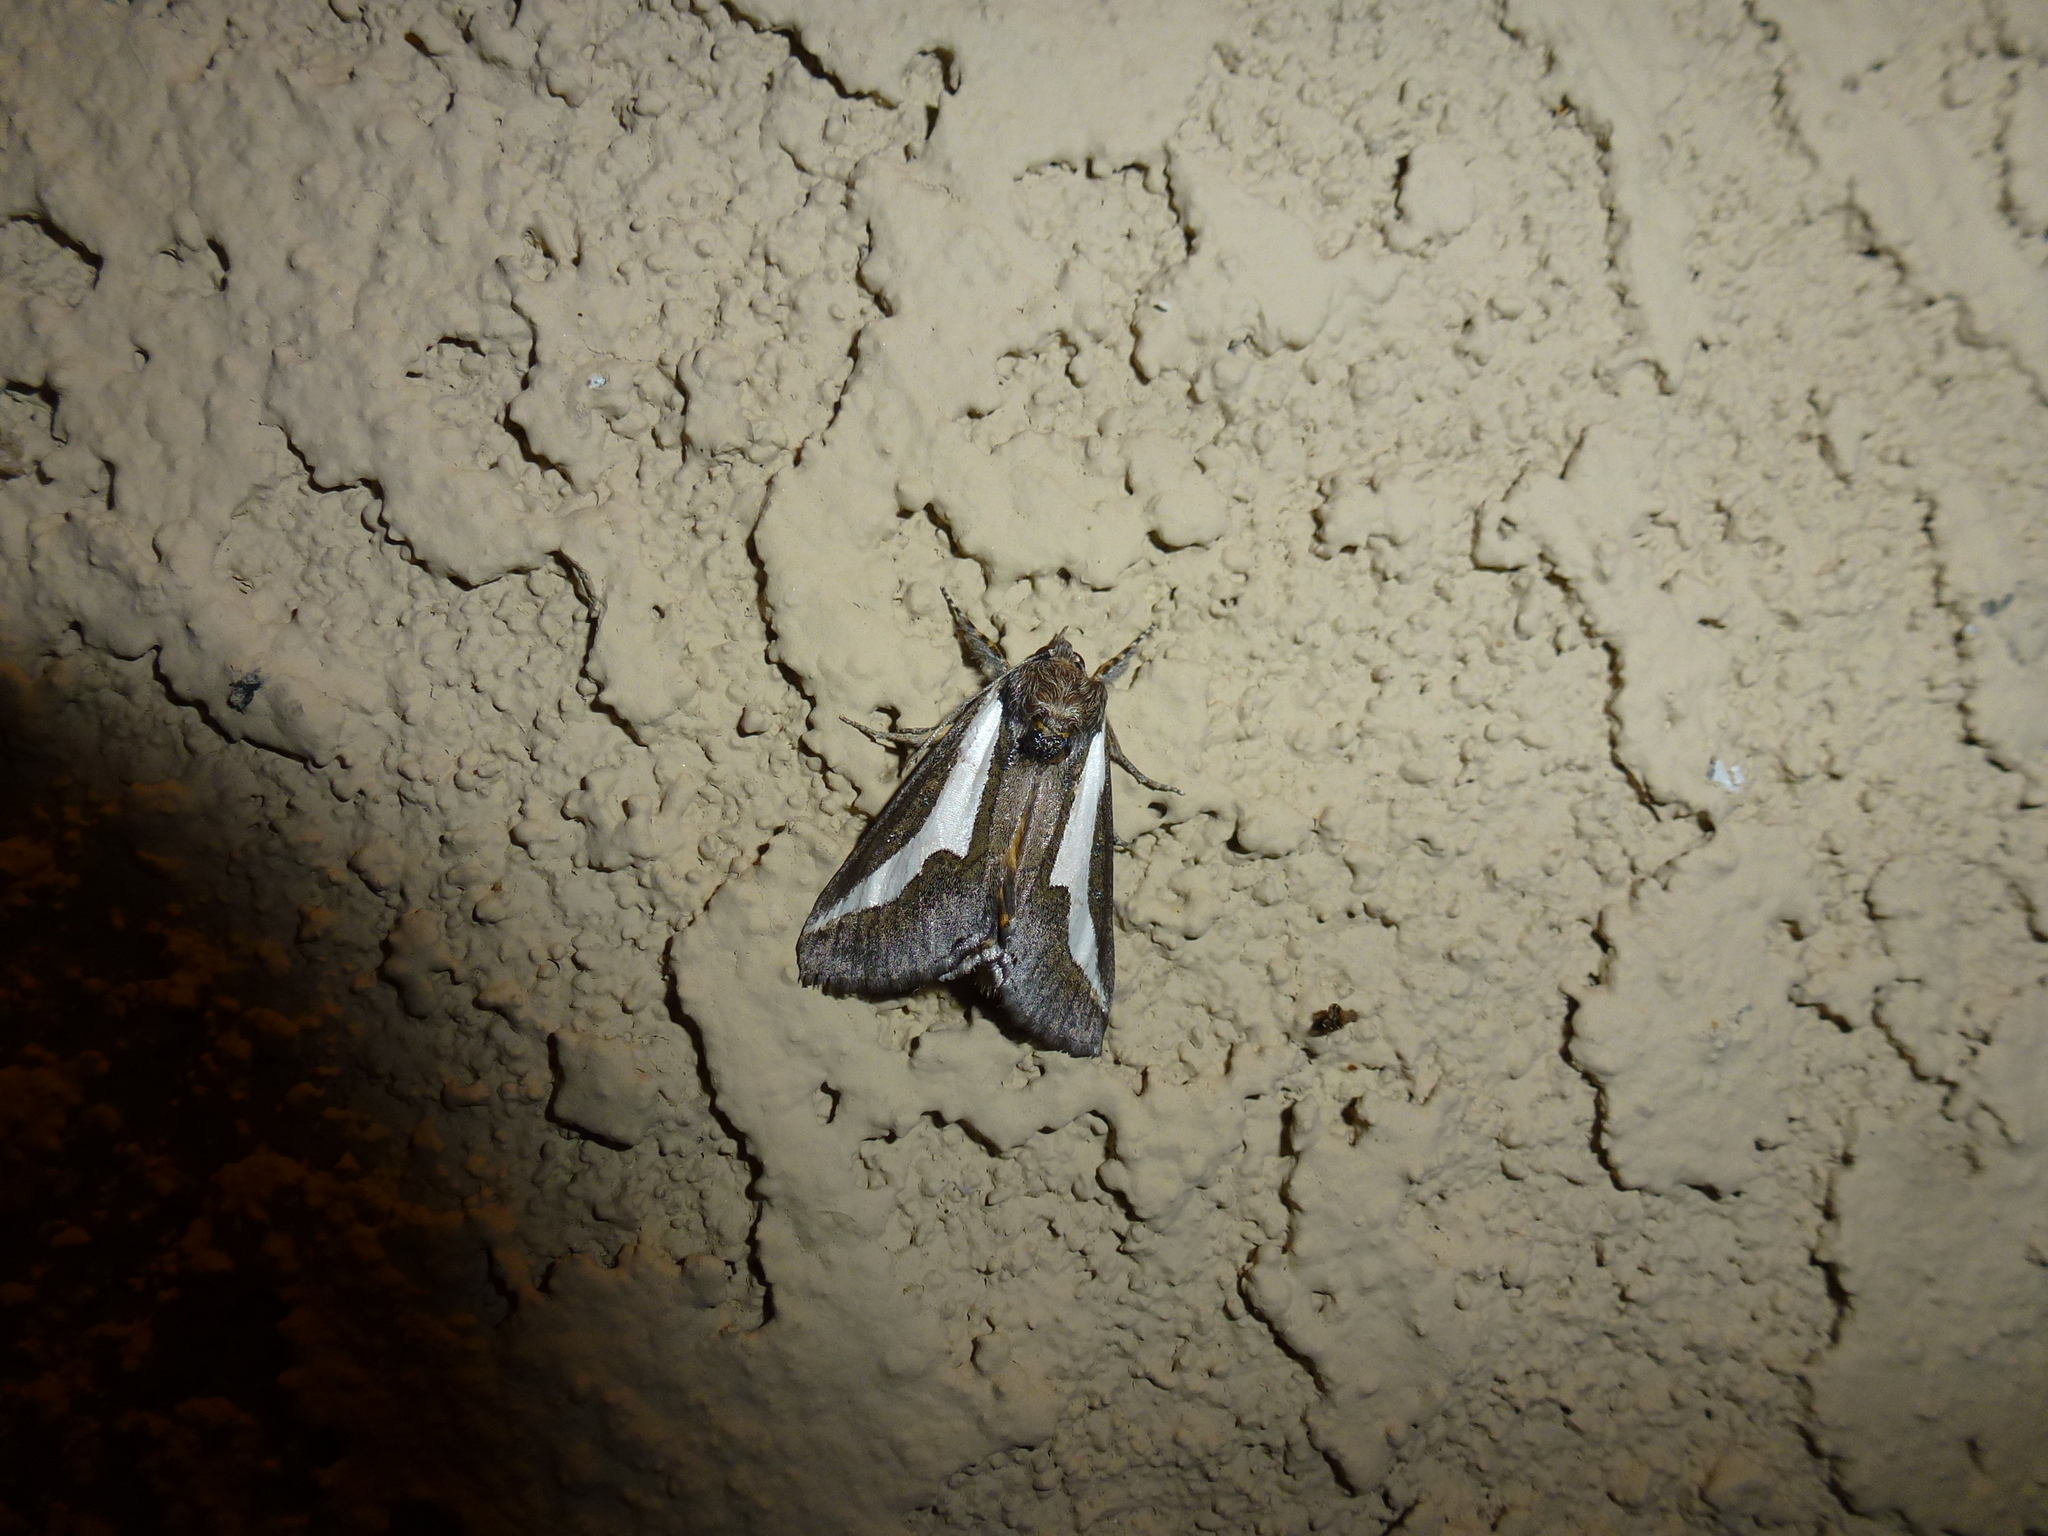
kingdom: Animalia
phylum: Arthropoda
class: Insecta
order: Lepidoptera
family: Noctuidae
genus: Euscirrhopterus
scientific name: Euscirrhopterus cosyra
